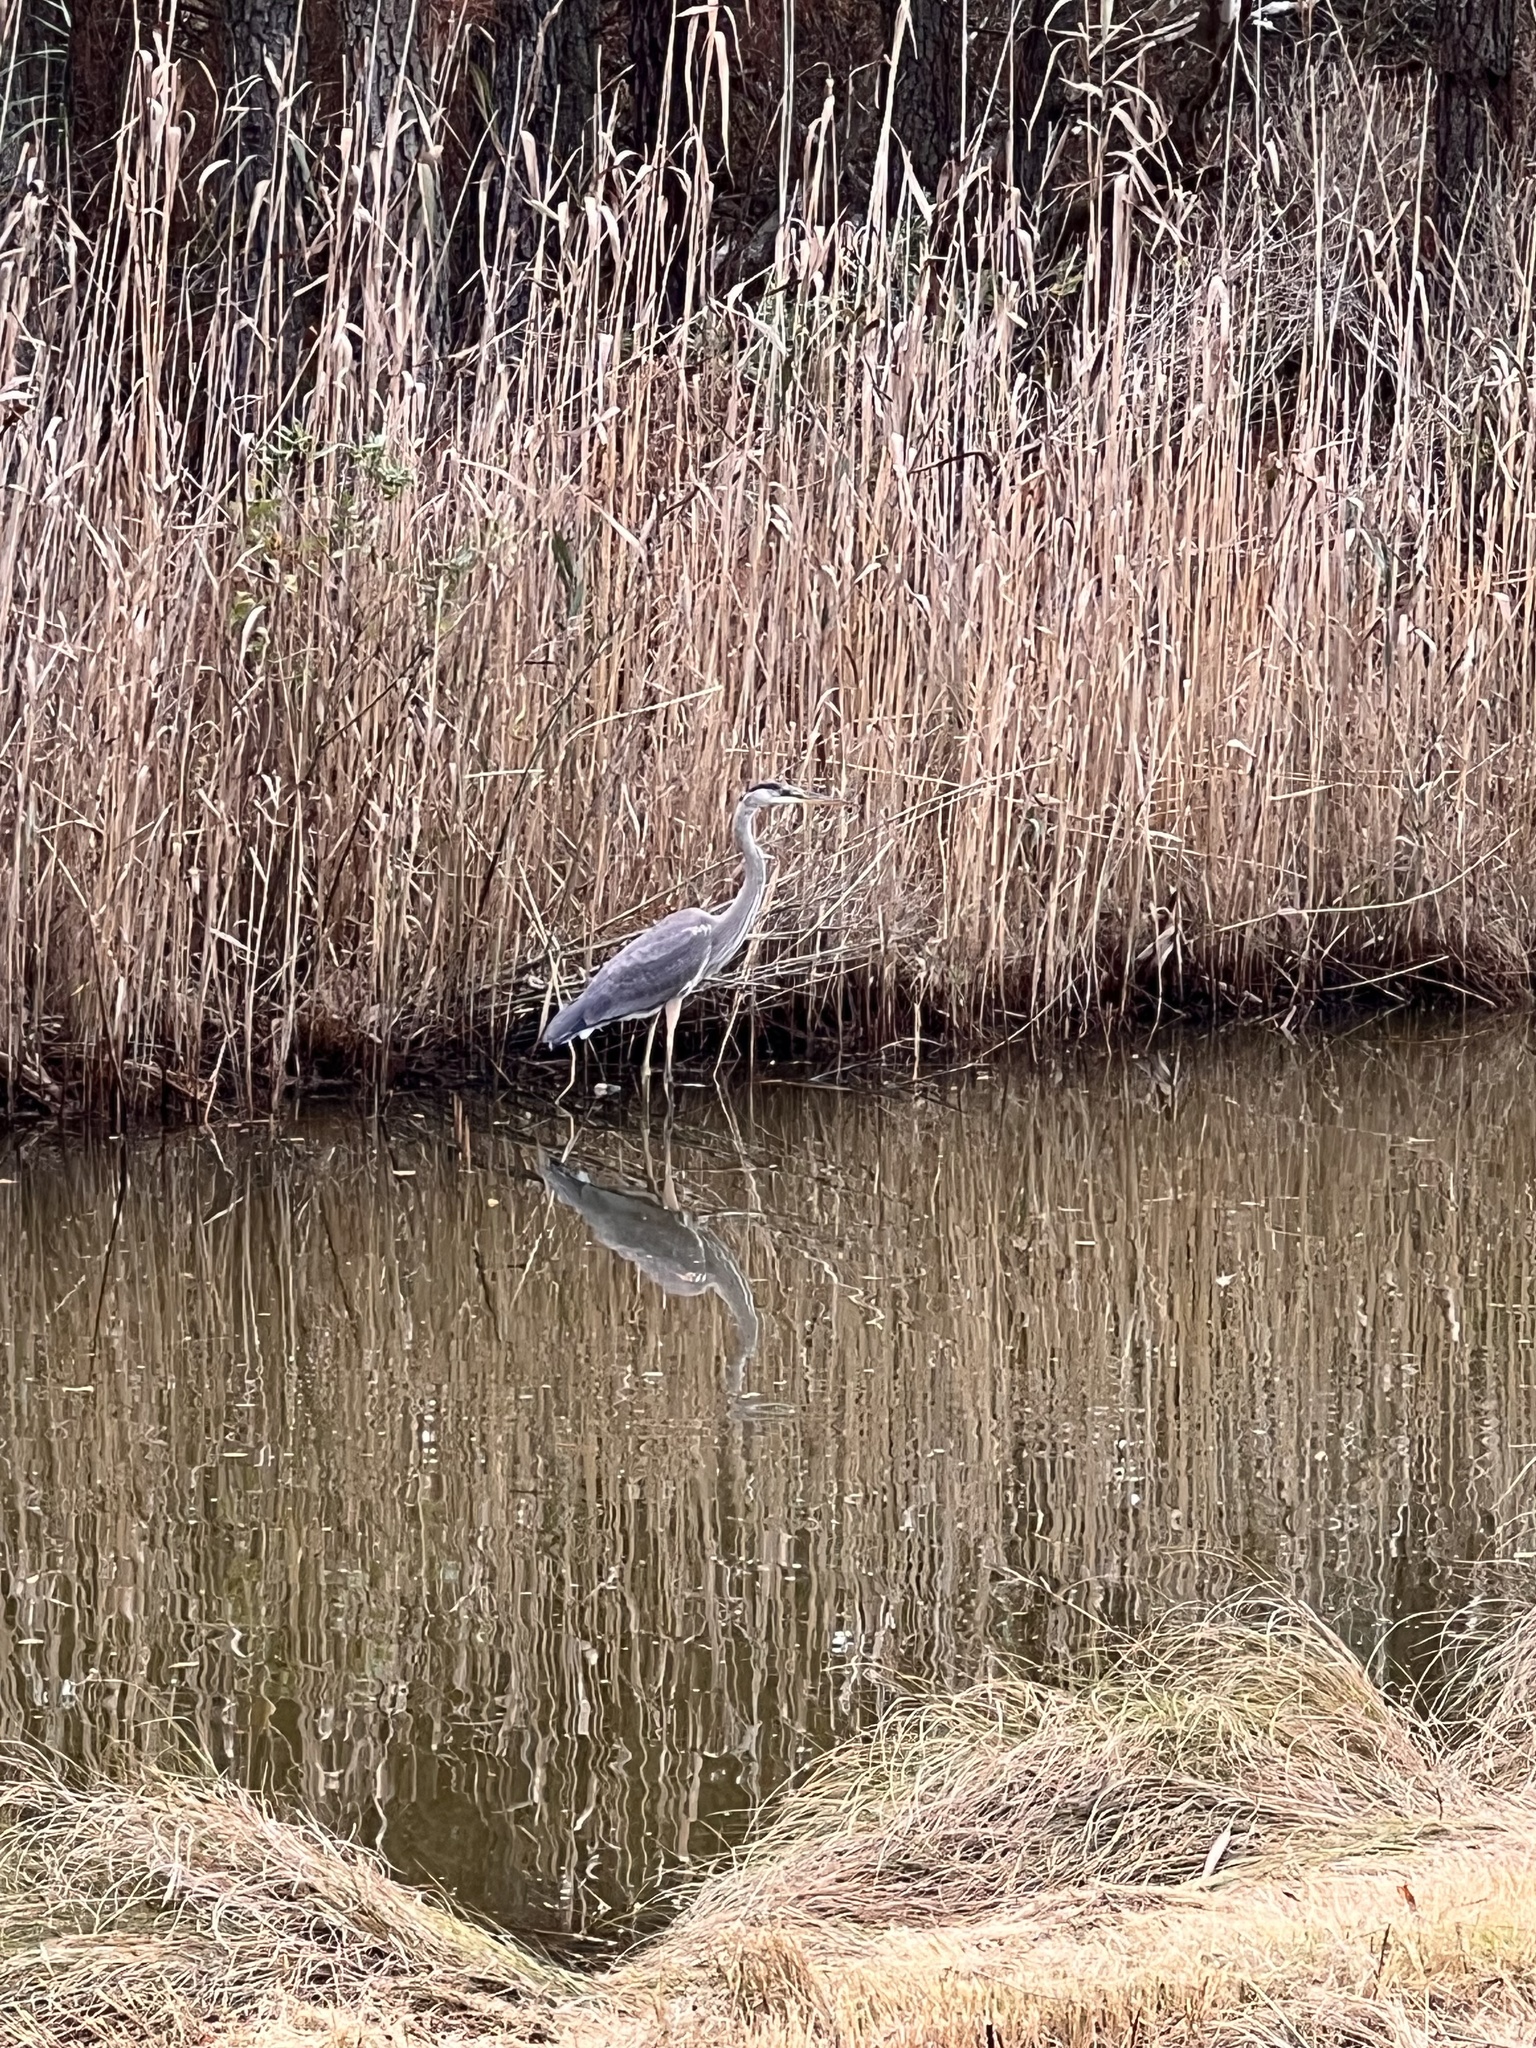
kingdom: Animalia
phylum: Chordata
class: Aves
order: Pelecaniformes
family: Ardeidae
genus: Ardea
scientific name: Ardea herodias
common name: Great blue heron
